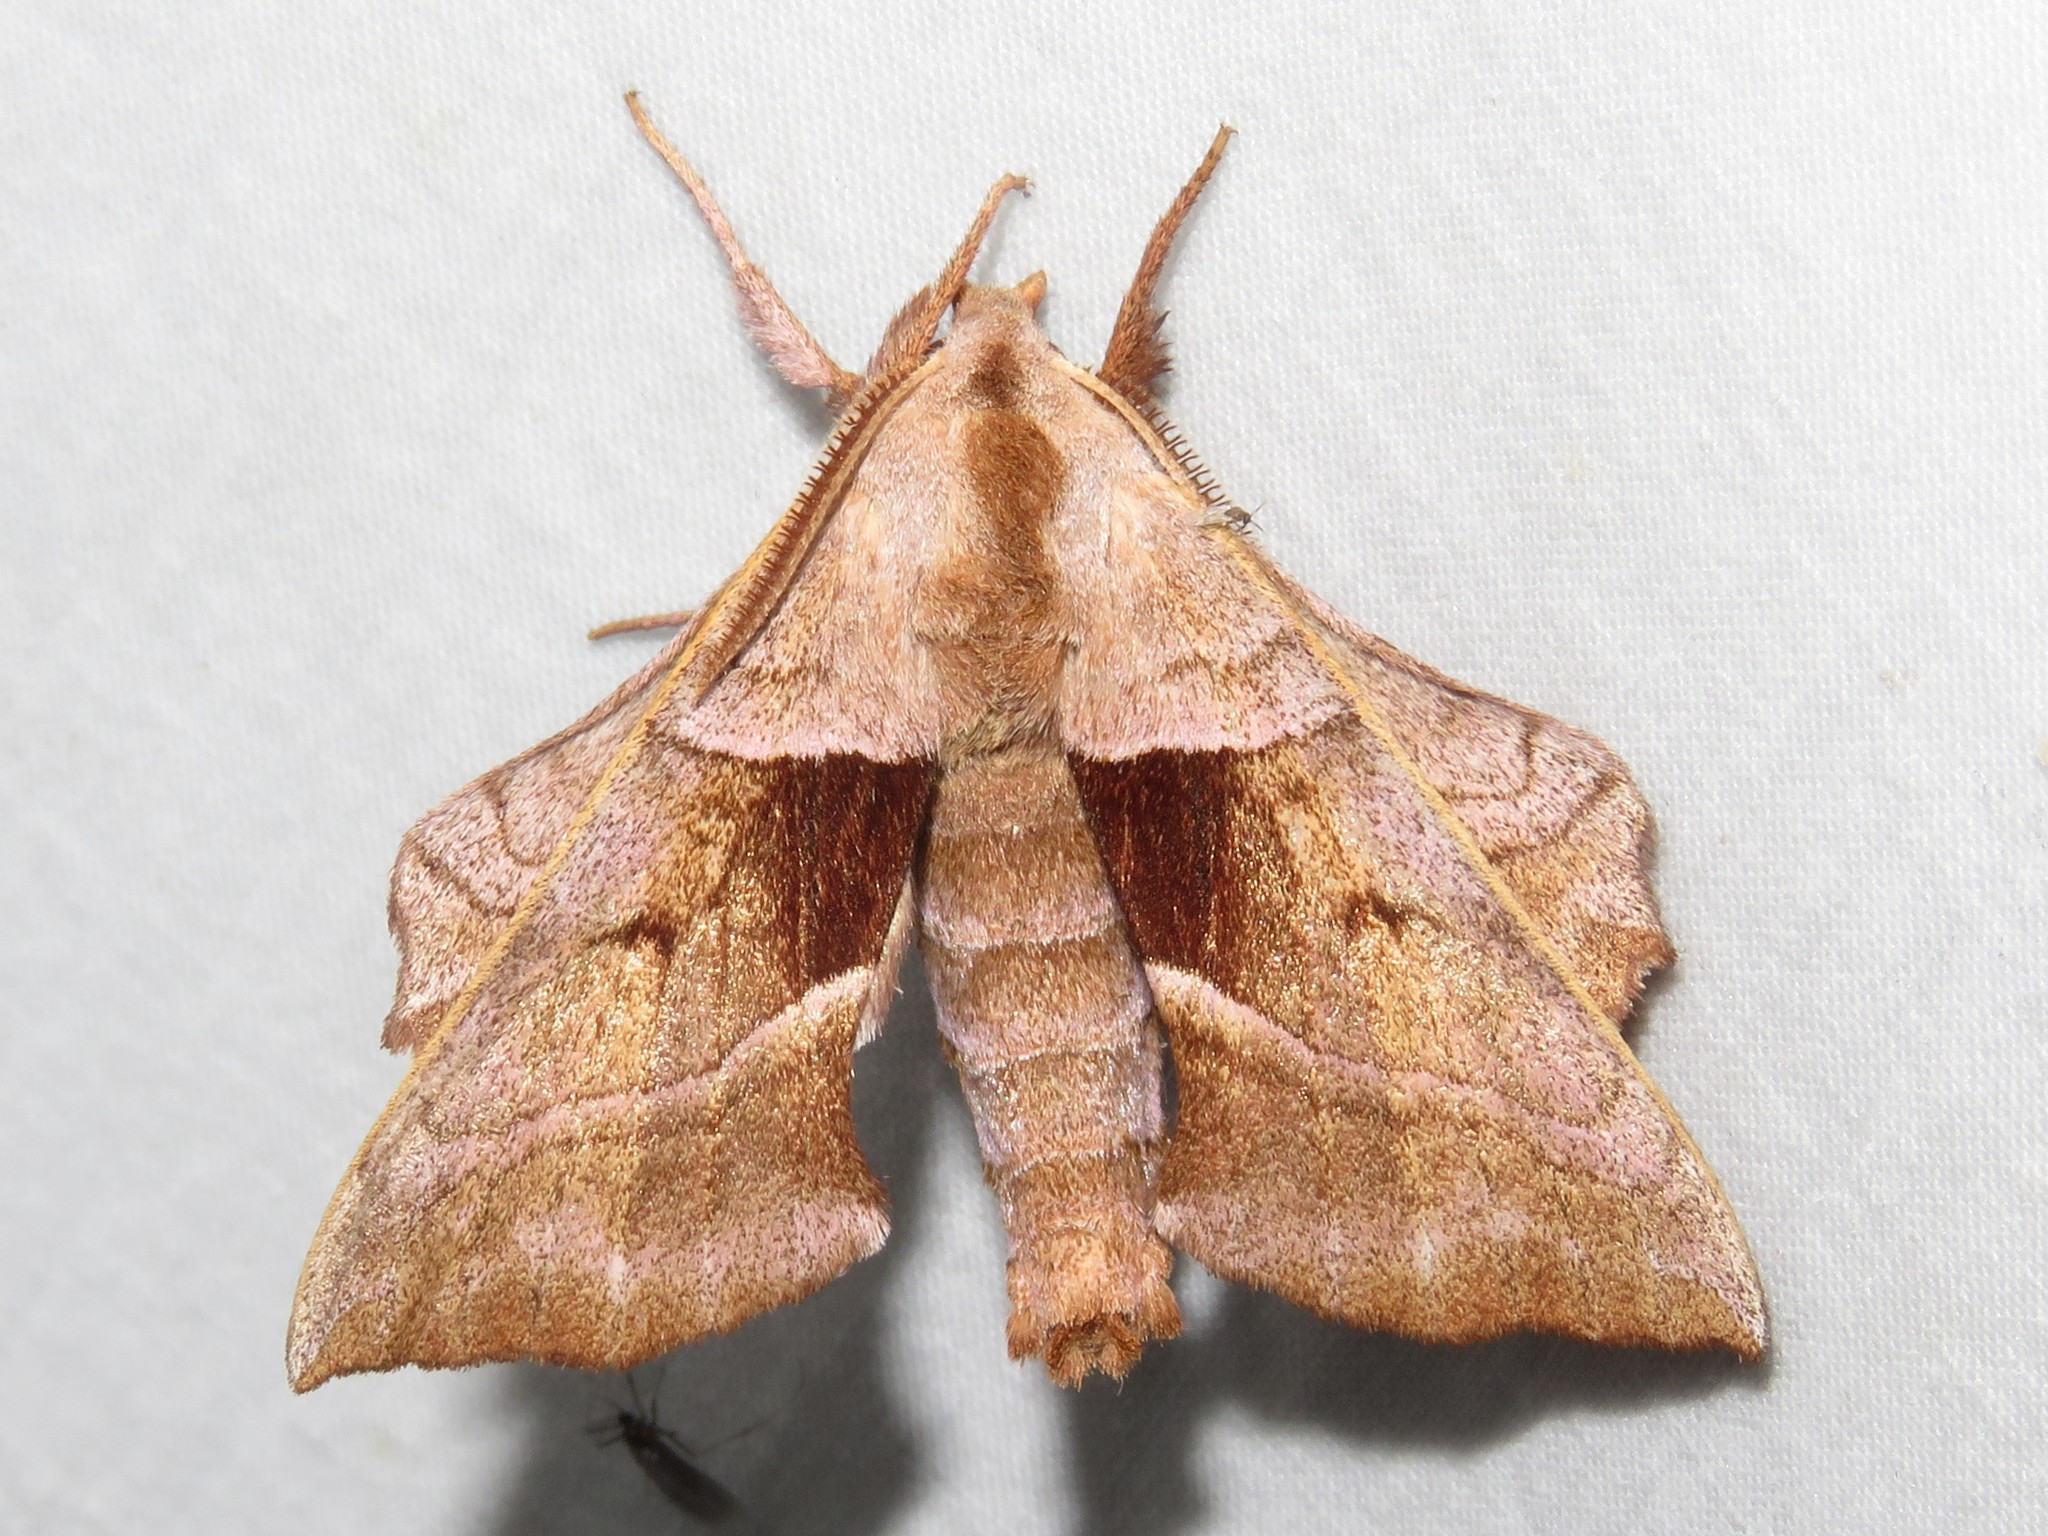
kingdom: Animalia
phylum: Arthropoda
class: Insecta
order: Lepidoptera
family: Sphingidae
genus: Amorpha
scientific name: Amorpha juglandis
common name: Walnut sphinx
